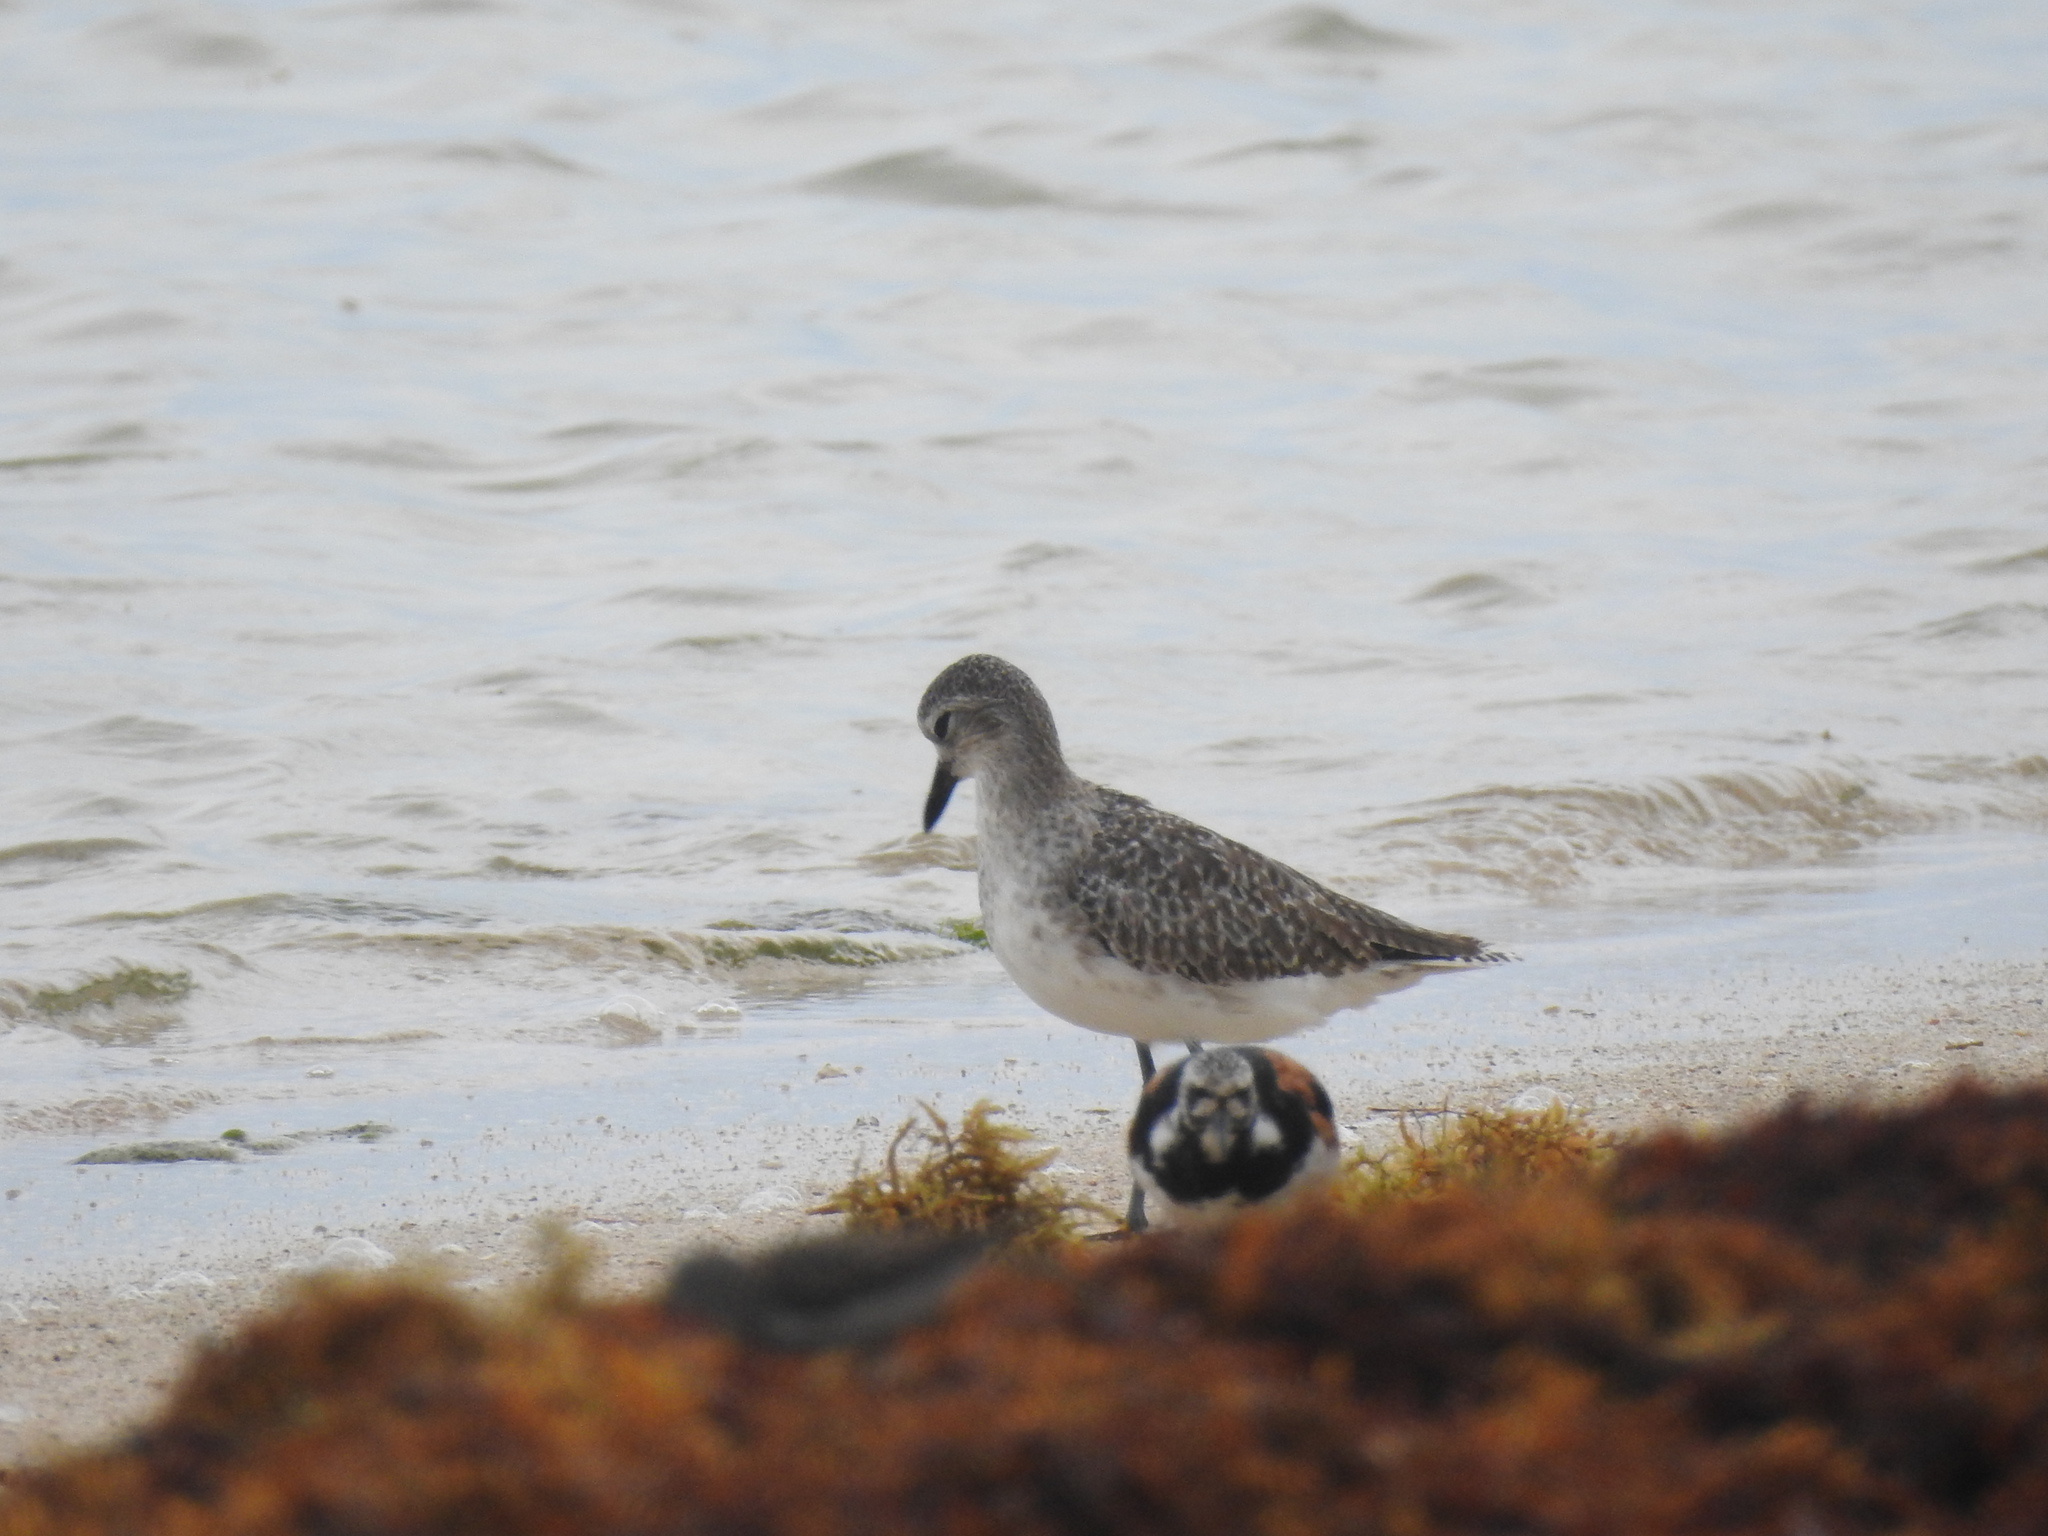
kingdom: Animalia
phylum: Chordata
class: Aves
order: Charadriiformes
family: Charadriidae
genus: Pluvialis
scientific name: Pluvialis squatarola
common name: Grey plover
